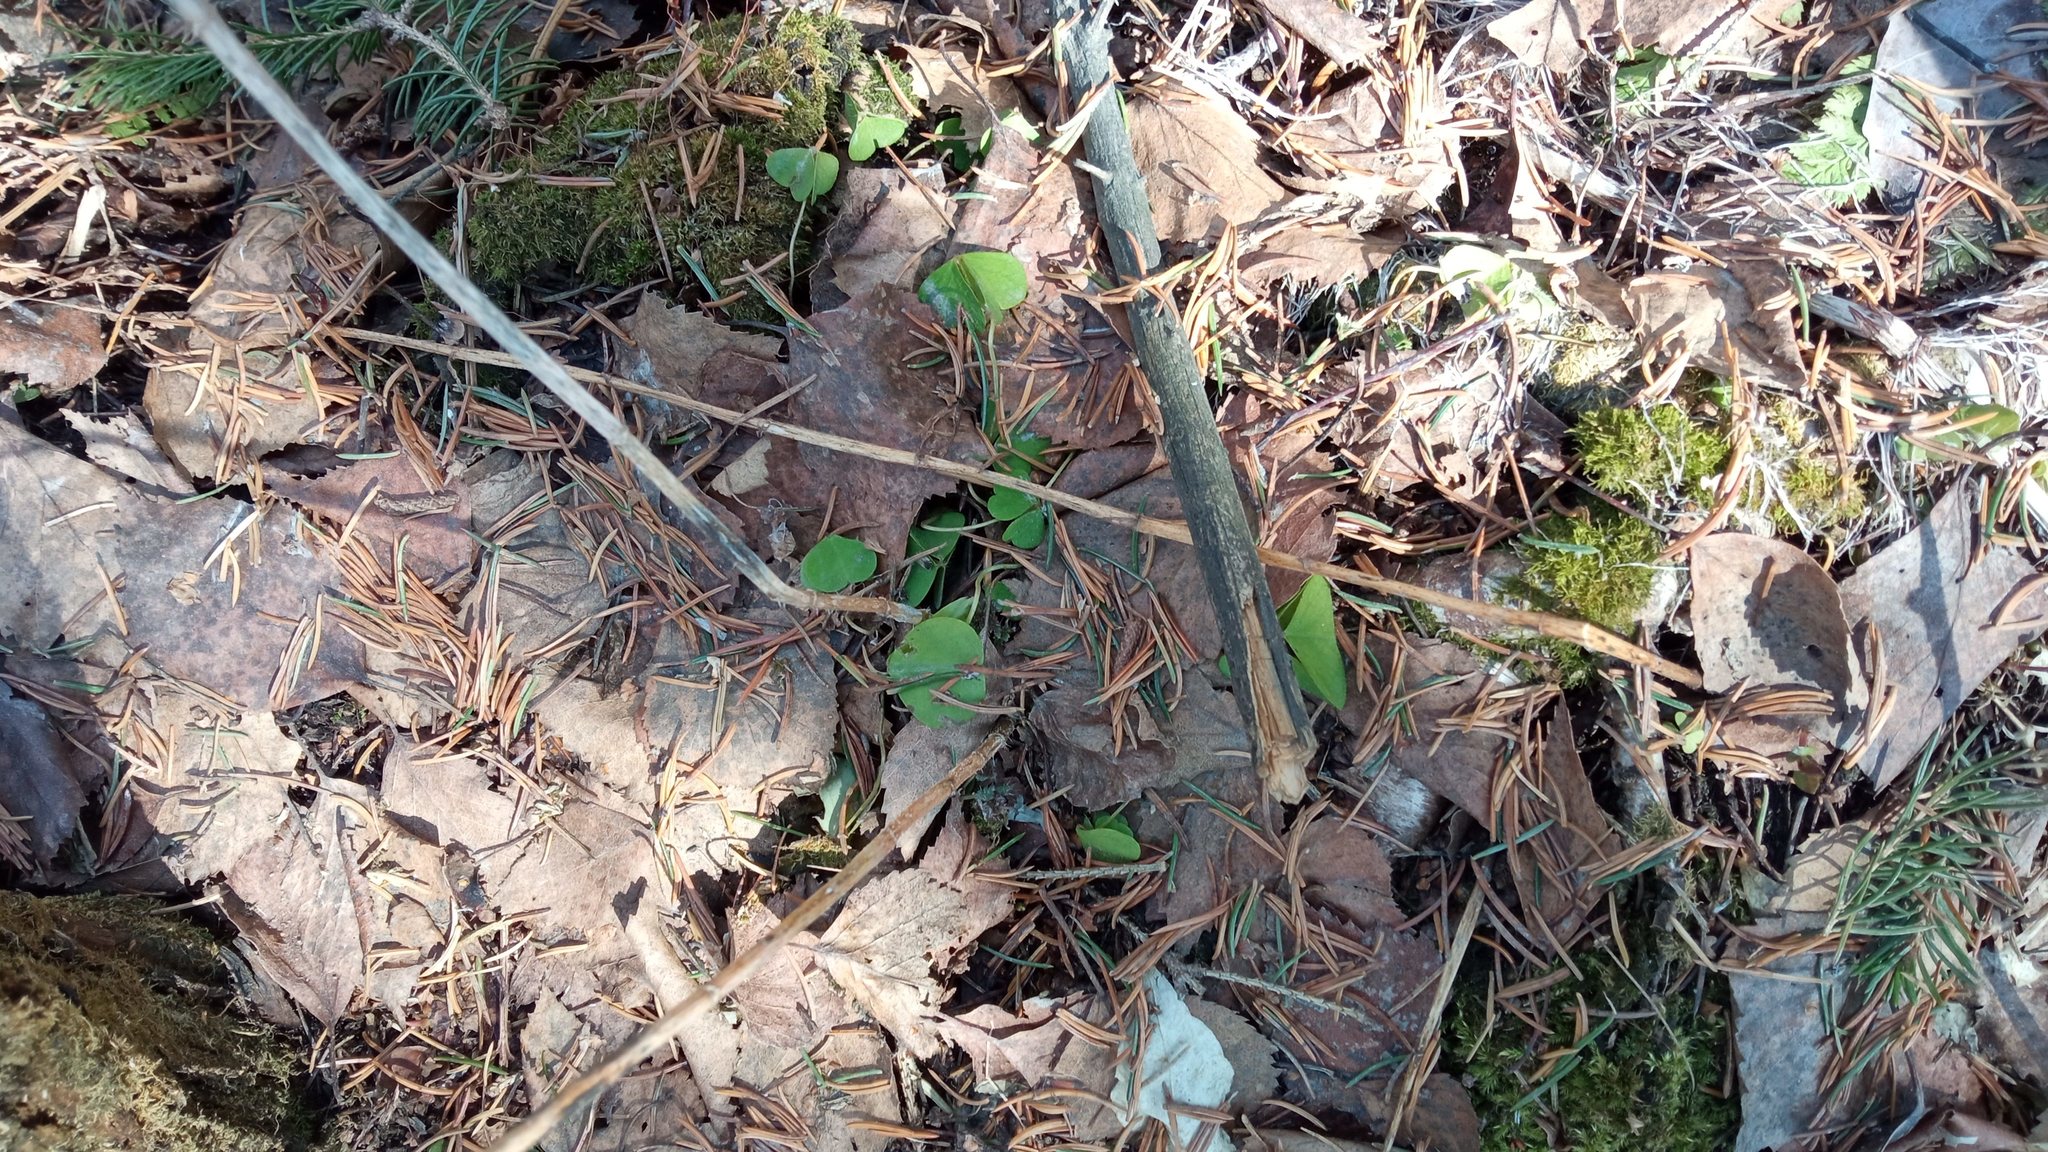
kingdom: Plantae
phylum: Tracheophyta
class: Magnoliopsida
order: Oxalidales
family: Oxalidaceae
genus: Oxalis
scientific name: Oxalis acetosella
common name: Wood-sorrel
